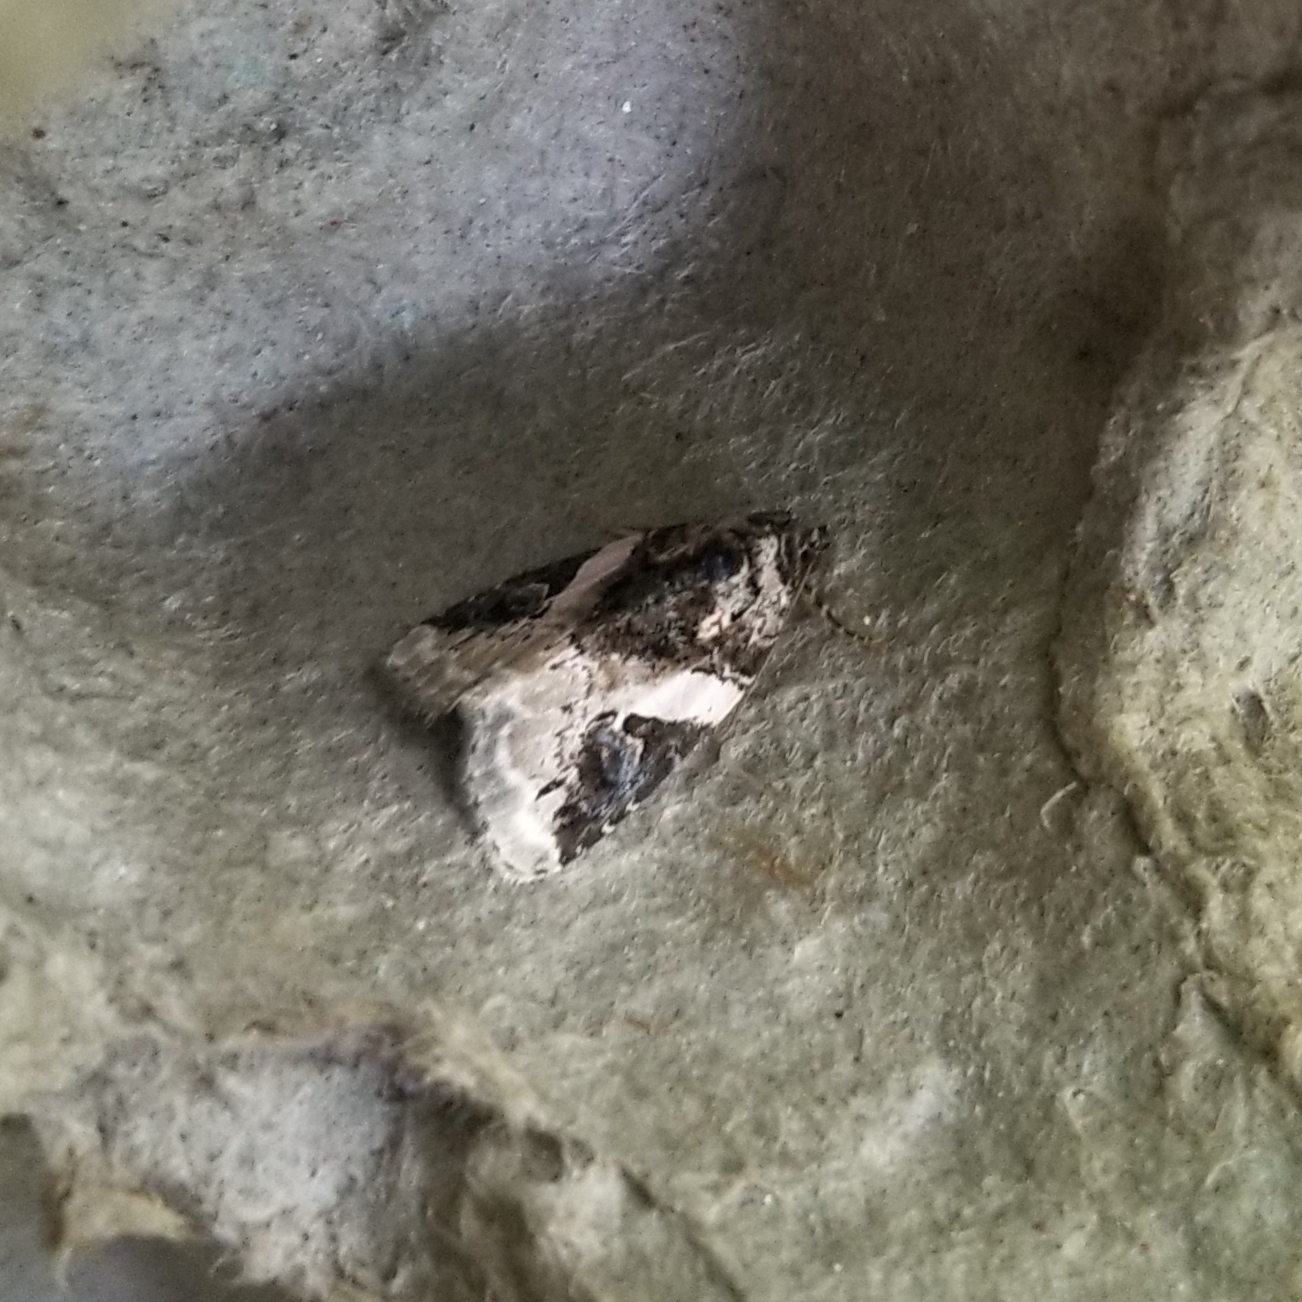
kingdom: Animalia
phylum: Arthropoda
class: Insecta
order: Lepidoptera
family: Noctuidae
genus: Pseudeustrotia
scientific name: Pseudeustrotia carneola
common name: Pink-barred lithacodia moth
